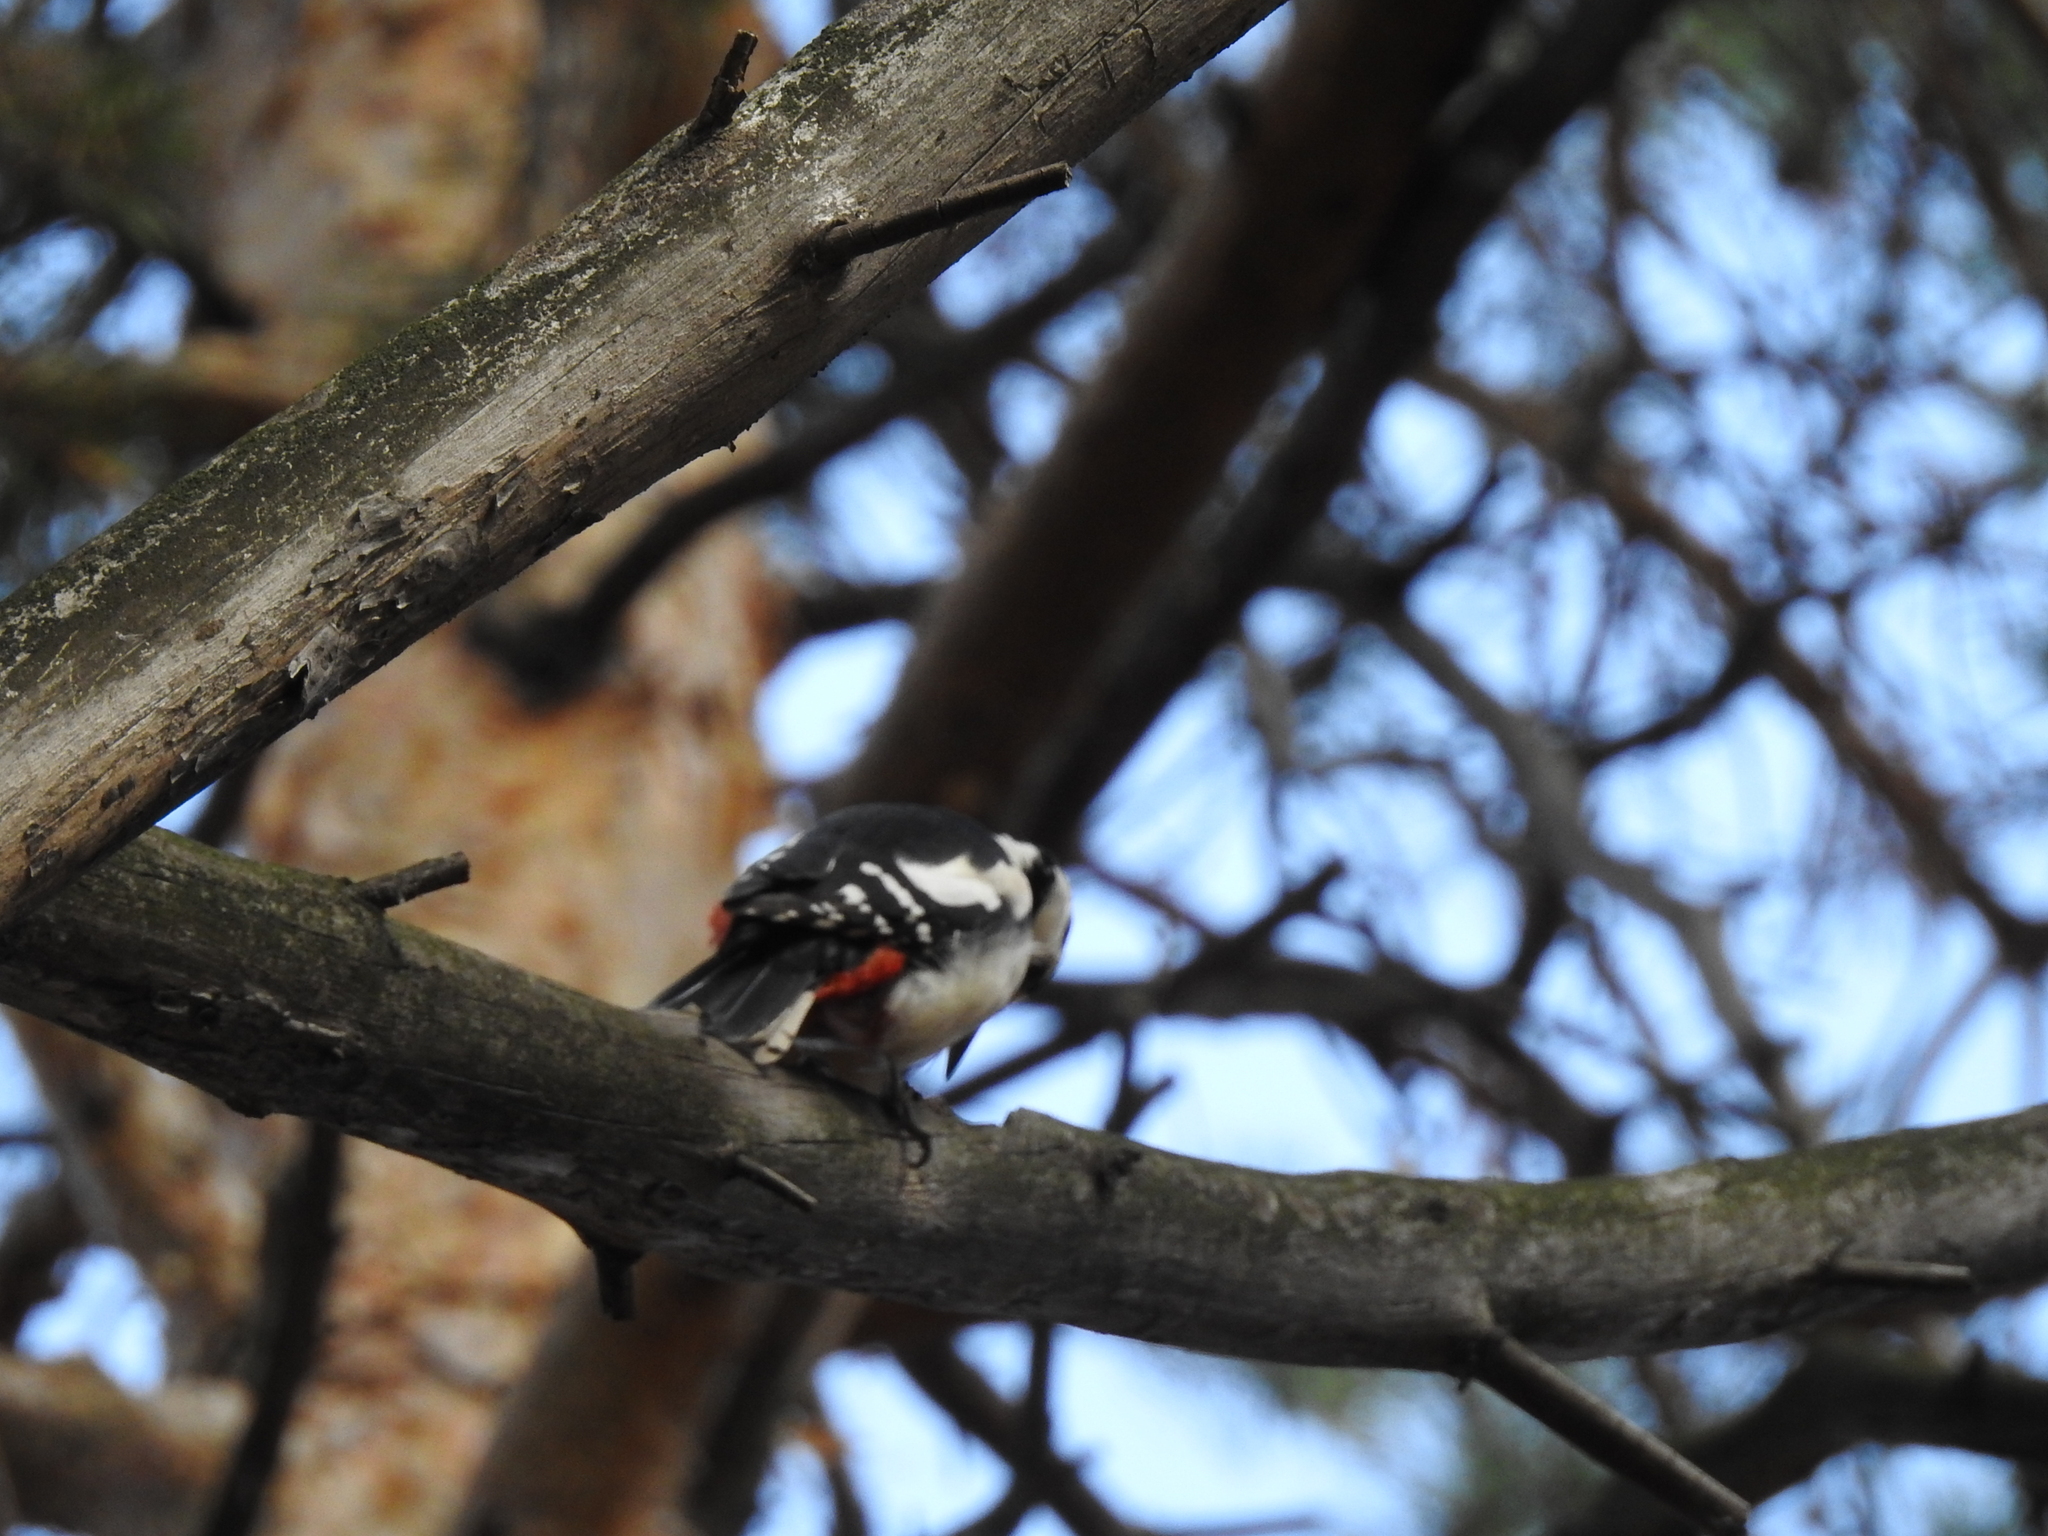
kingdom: Animalia
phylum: Chordata
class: Aves
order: Piciformes
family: Picidae
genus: Dendrocopos
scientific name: Dendrocopos major
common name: Great spotted woodpecker
